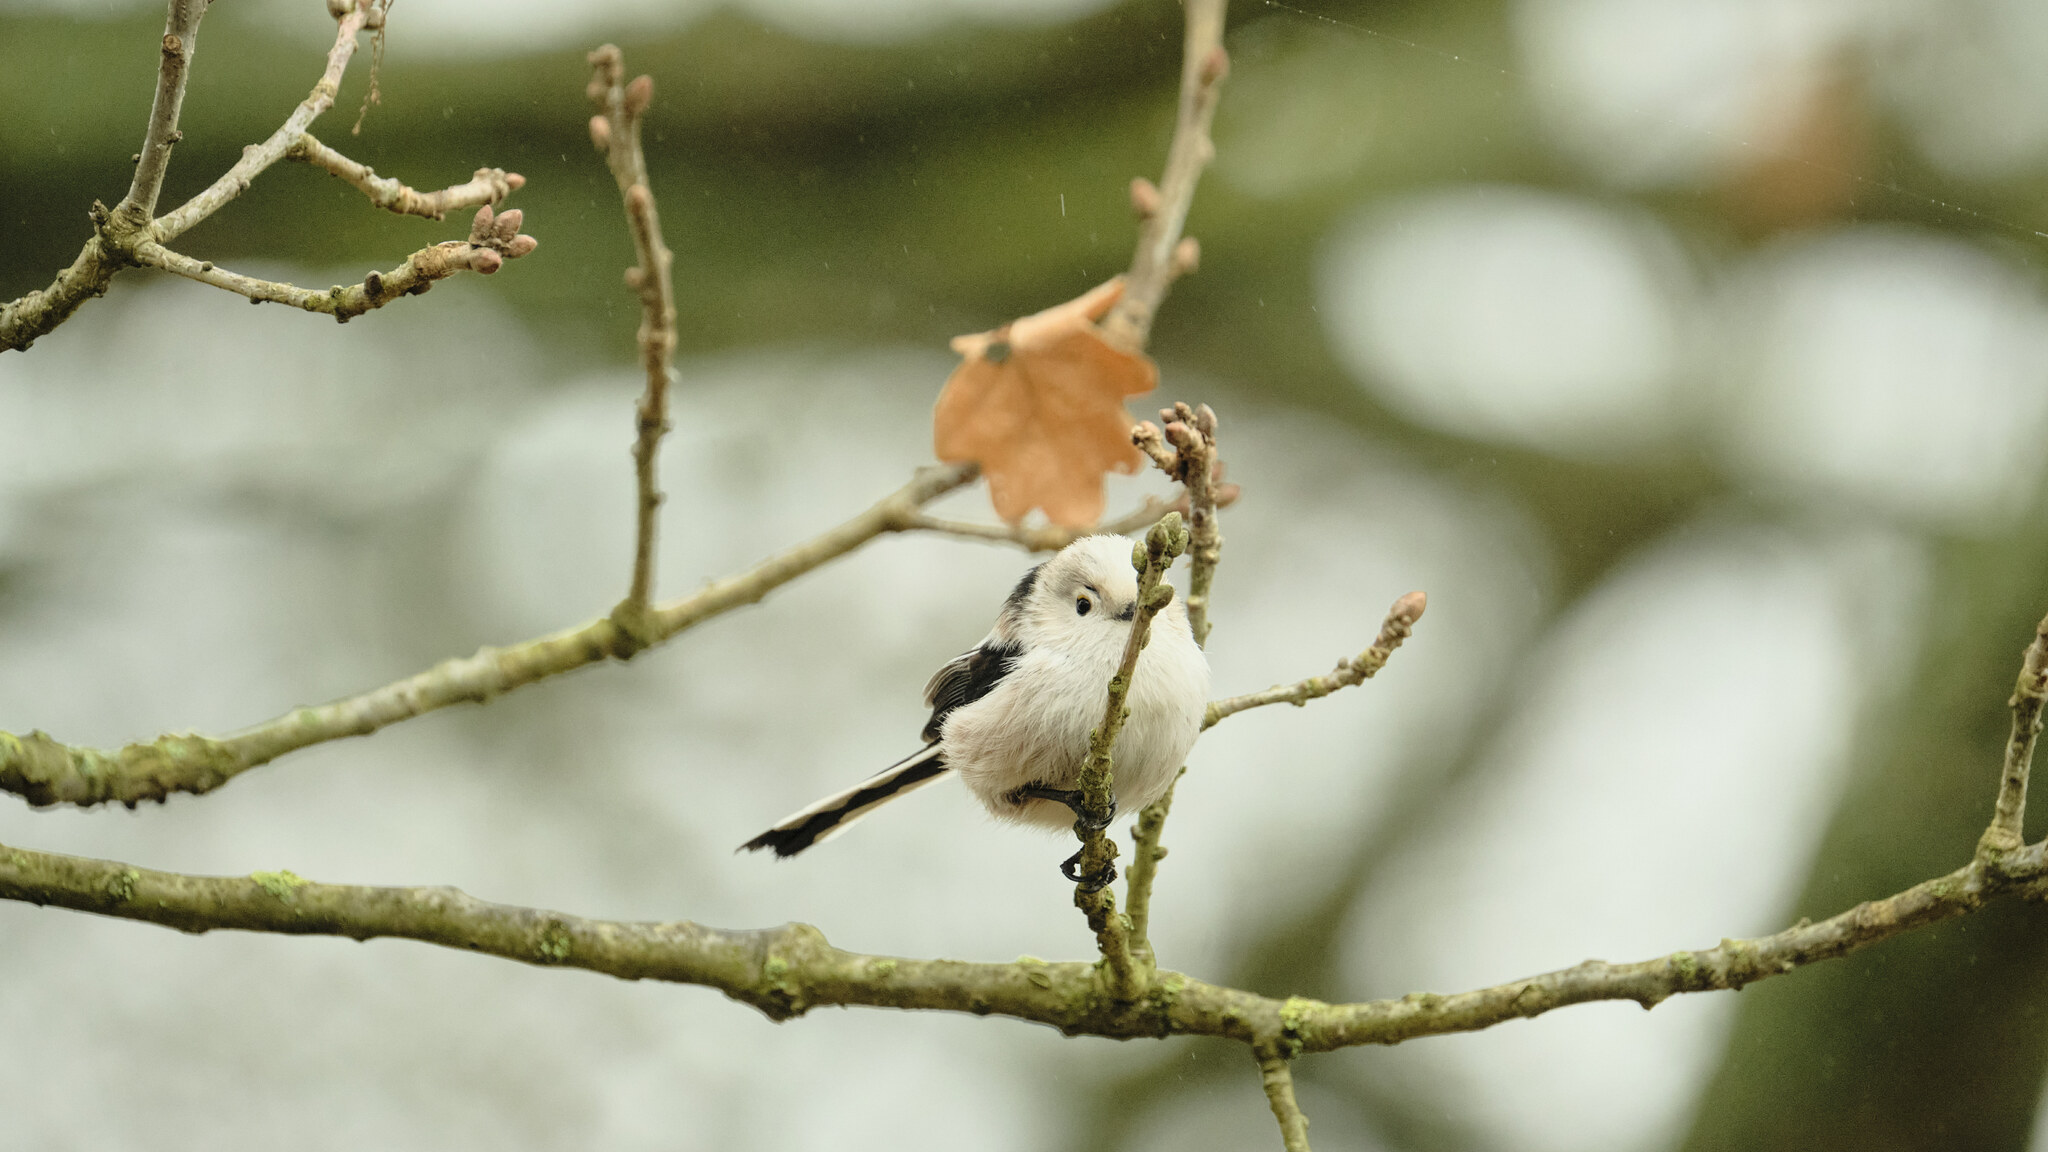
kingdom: Animalia
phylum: Chordata
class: Aves
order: Passeriformes
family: Aegithalidae
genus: Aegithalos
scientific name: Aegithalos caudatus
